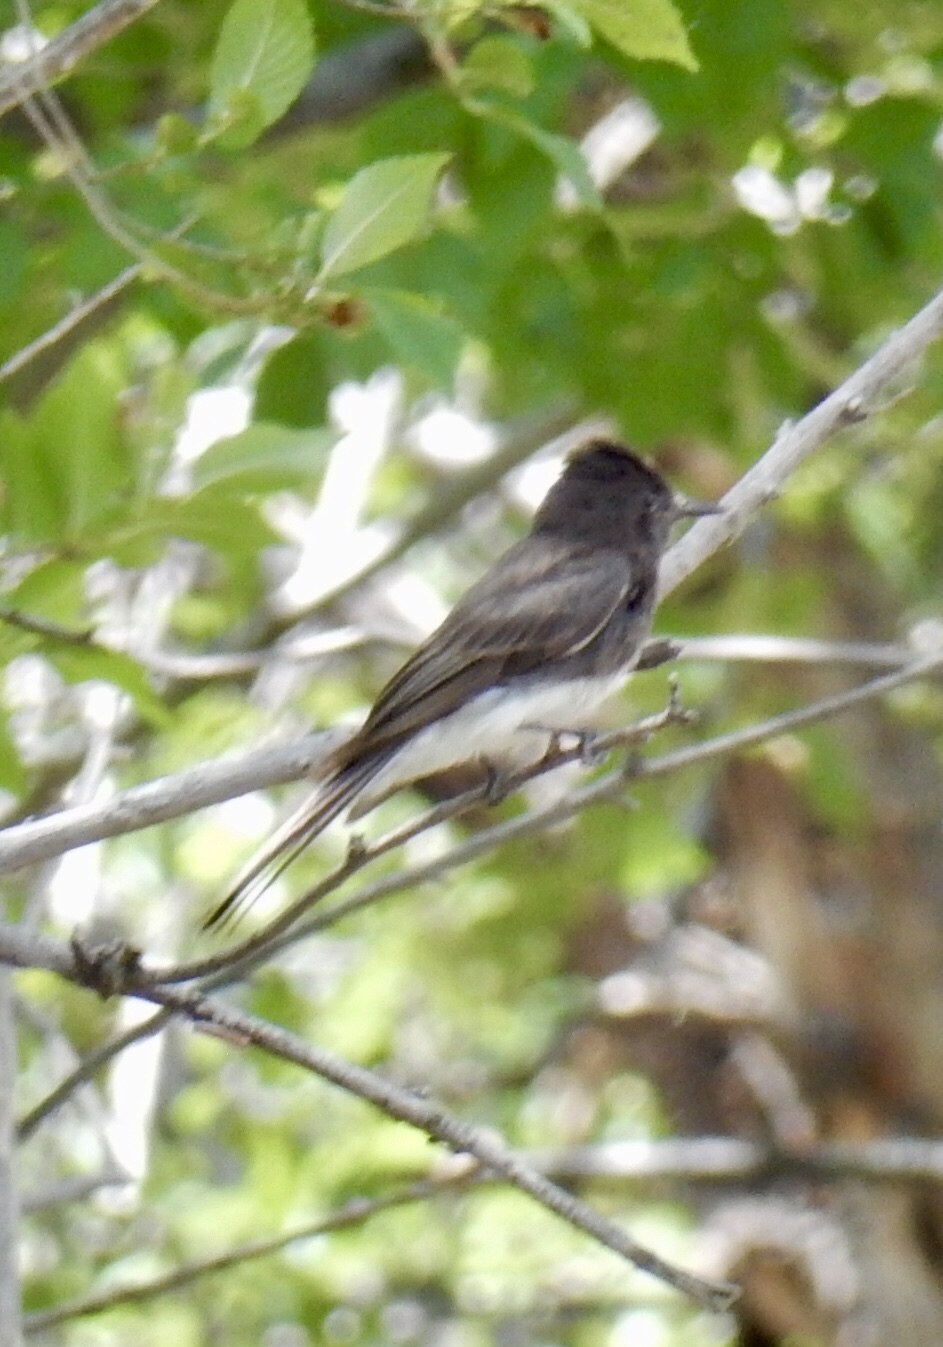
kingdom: Animalia
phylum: Chordata
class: Aves
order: Passeriformes
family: Tyrannidae
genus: Sayornis
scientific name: Sayornis nigricans
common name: Black phoebe
